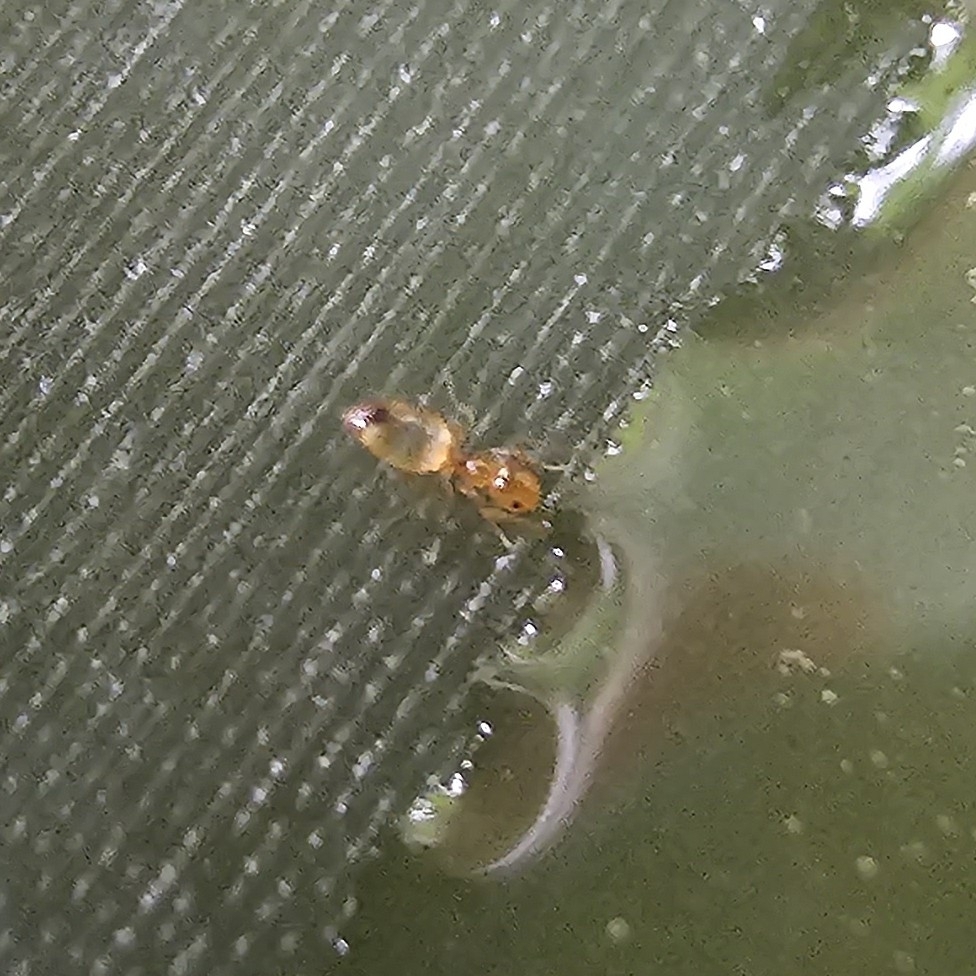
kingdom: Animalia
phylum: Arthropoda
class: Insecta
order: Hymenoptera
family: Formicidae
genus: Plagiolepis
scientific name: Plagiolepis alluaudi
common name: Little yellow ant
